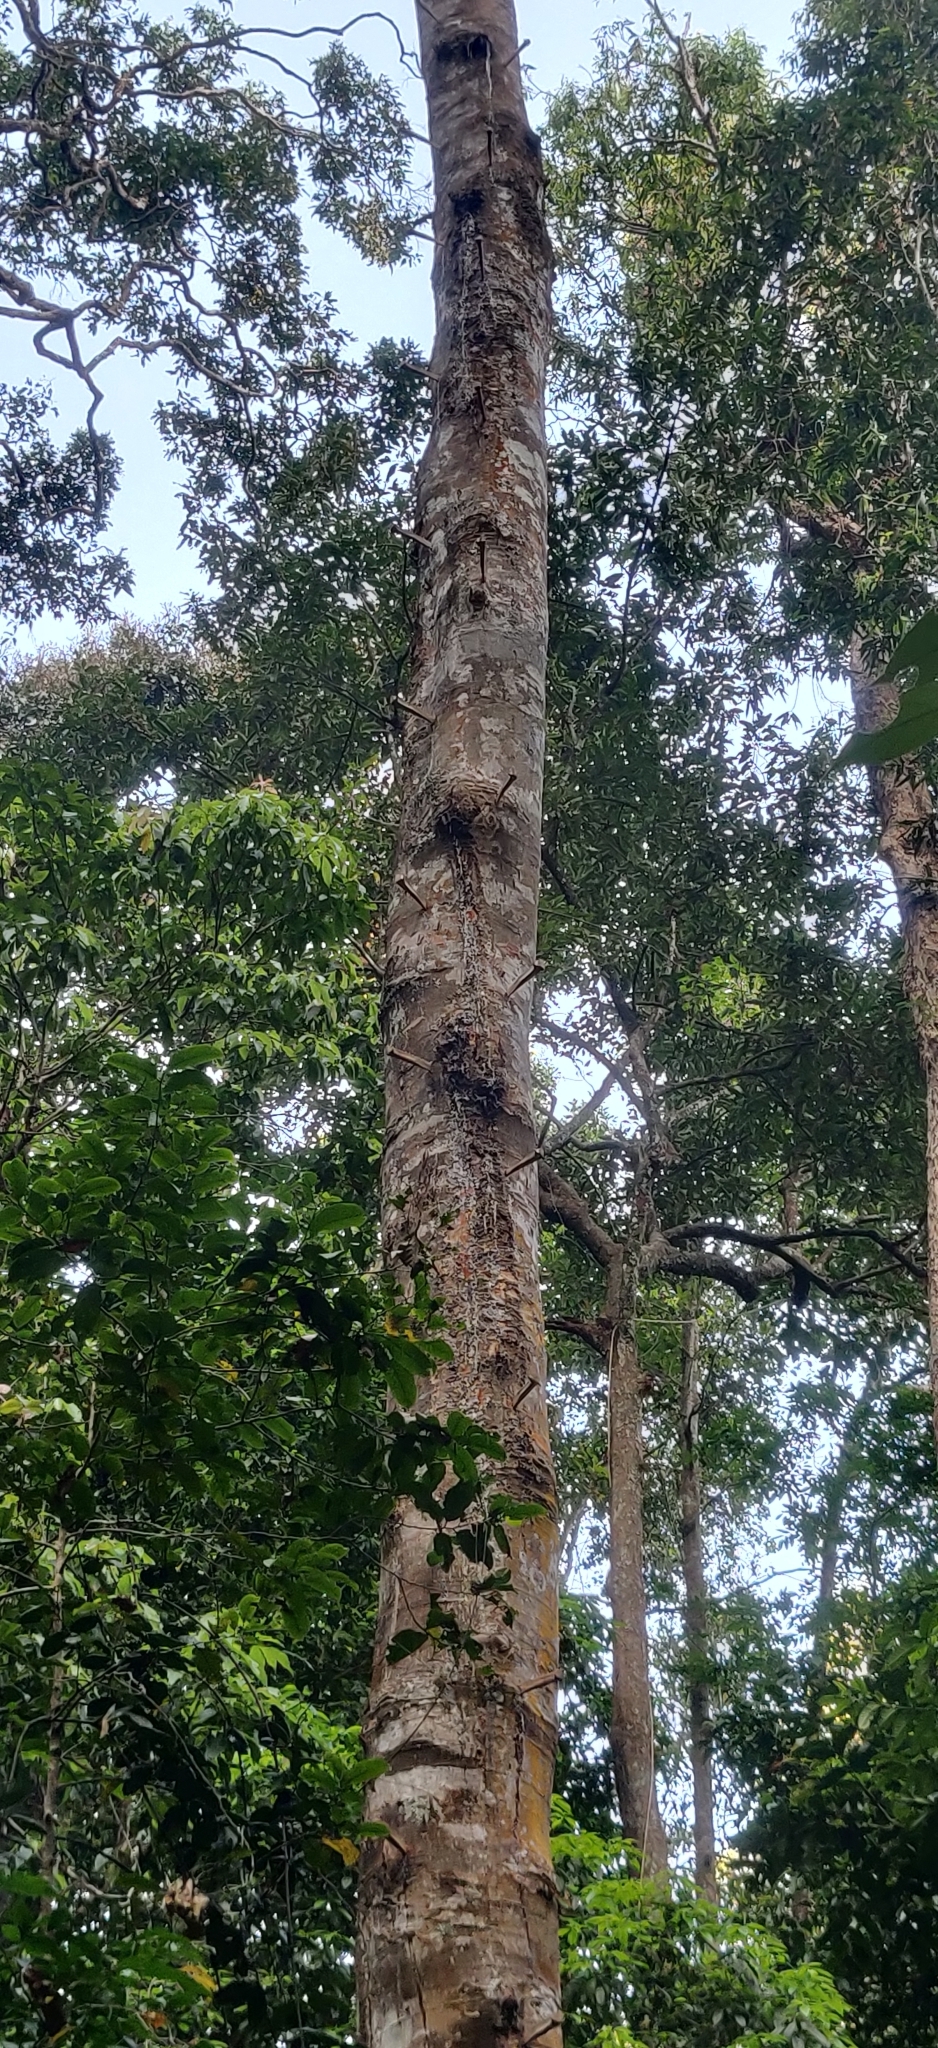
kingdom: Plantae
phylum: Tracheophyta
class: Magnoliopsida
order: Malvales
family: Dipterocarpaceae
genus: Vateria
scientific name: Vateria indica
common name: White dammar
